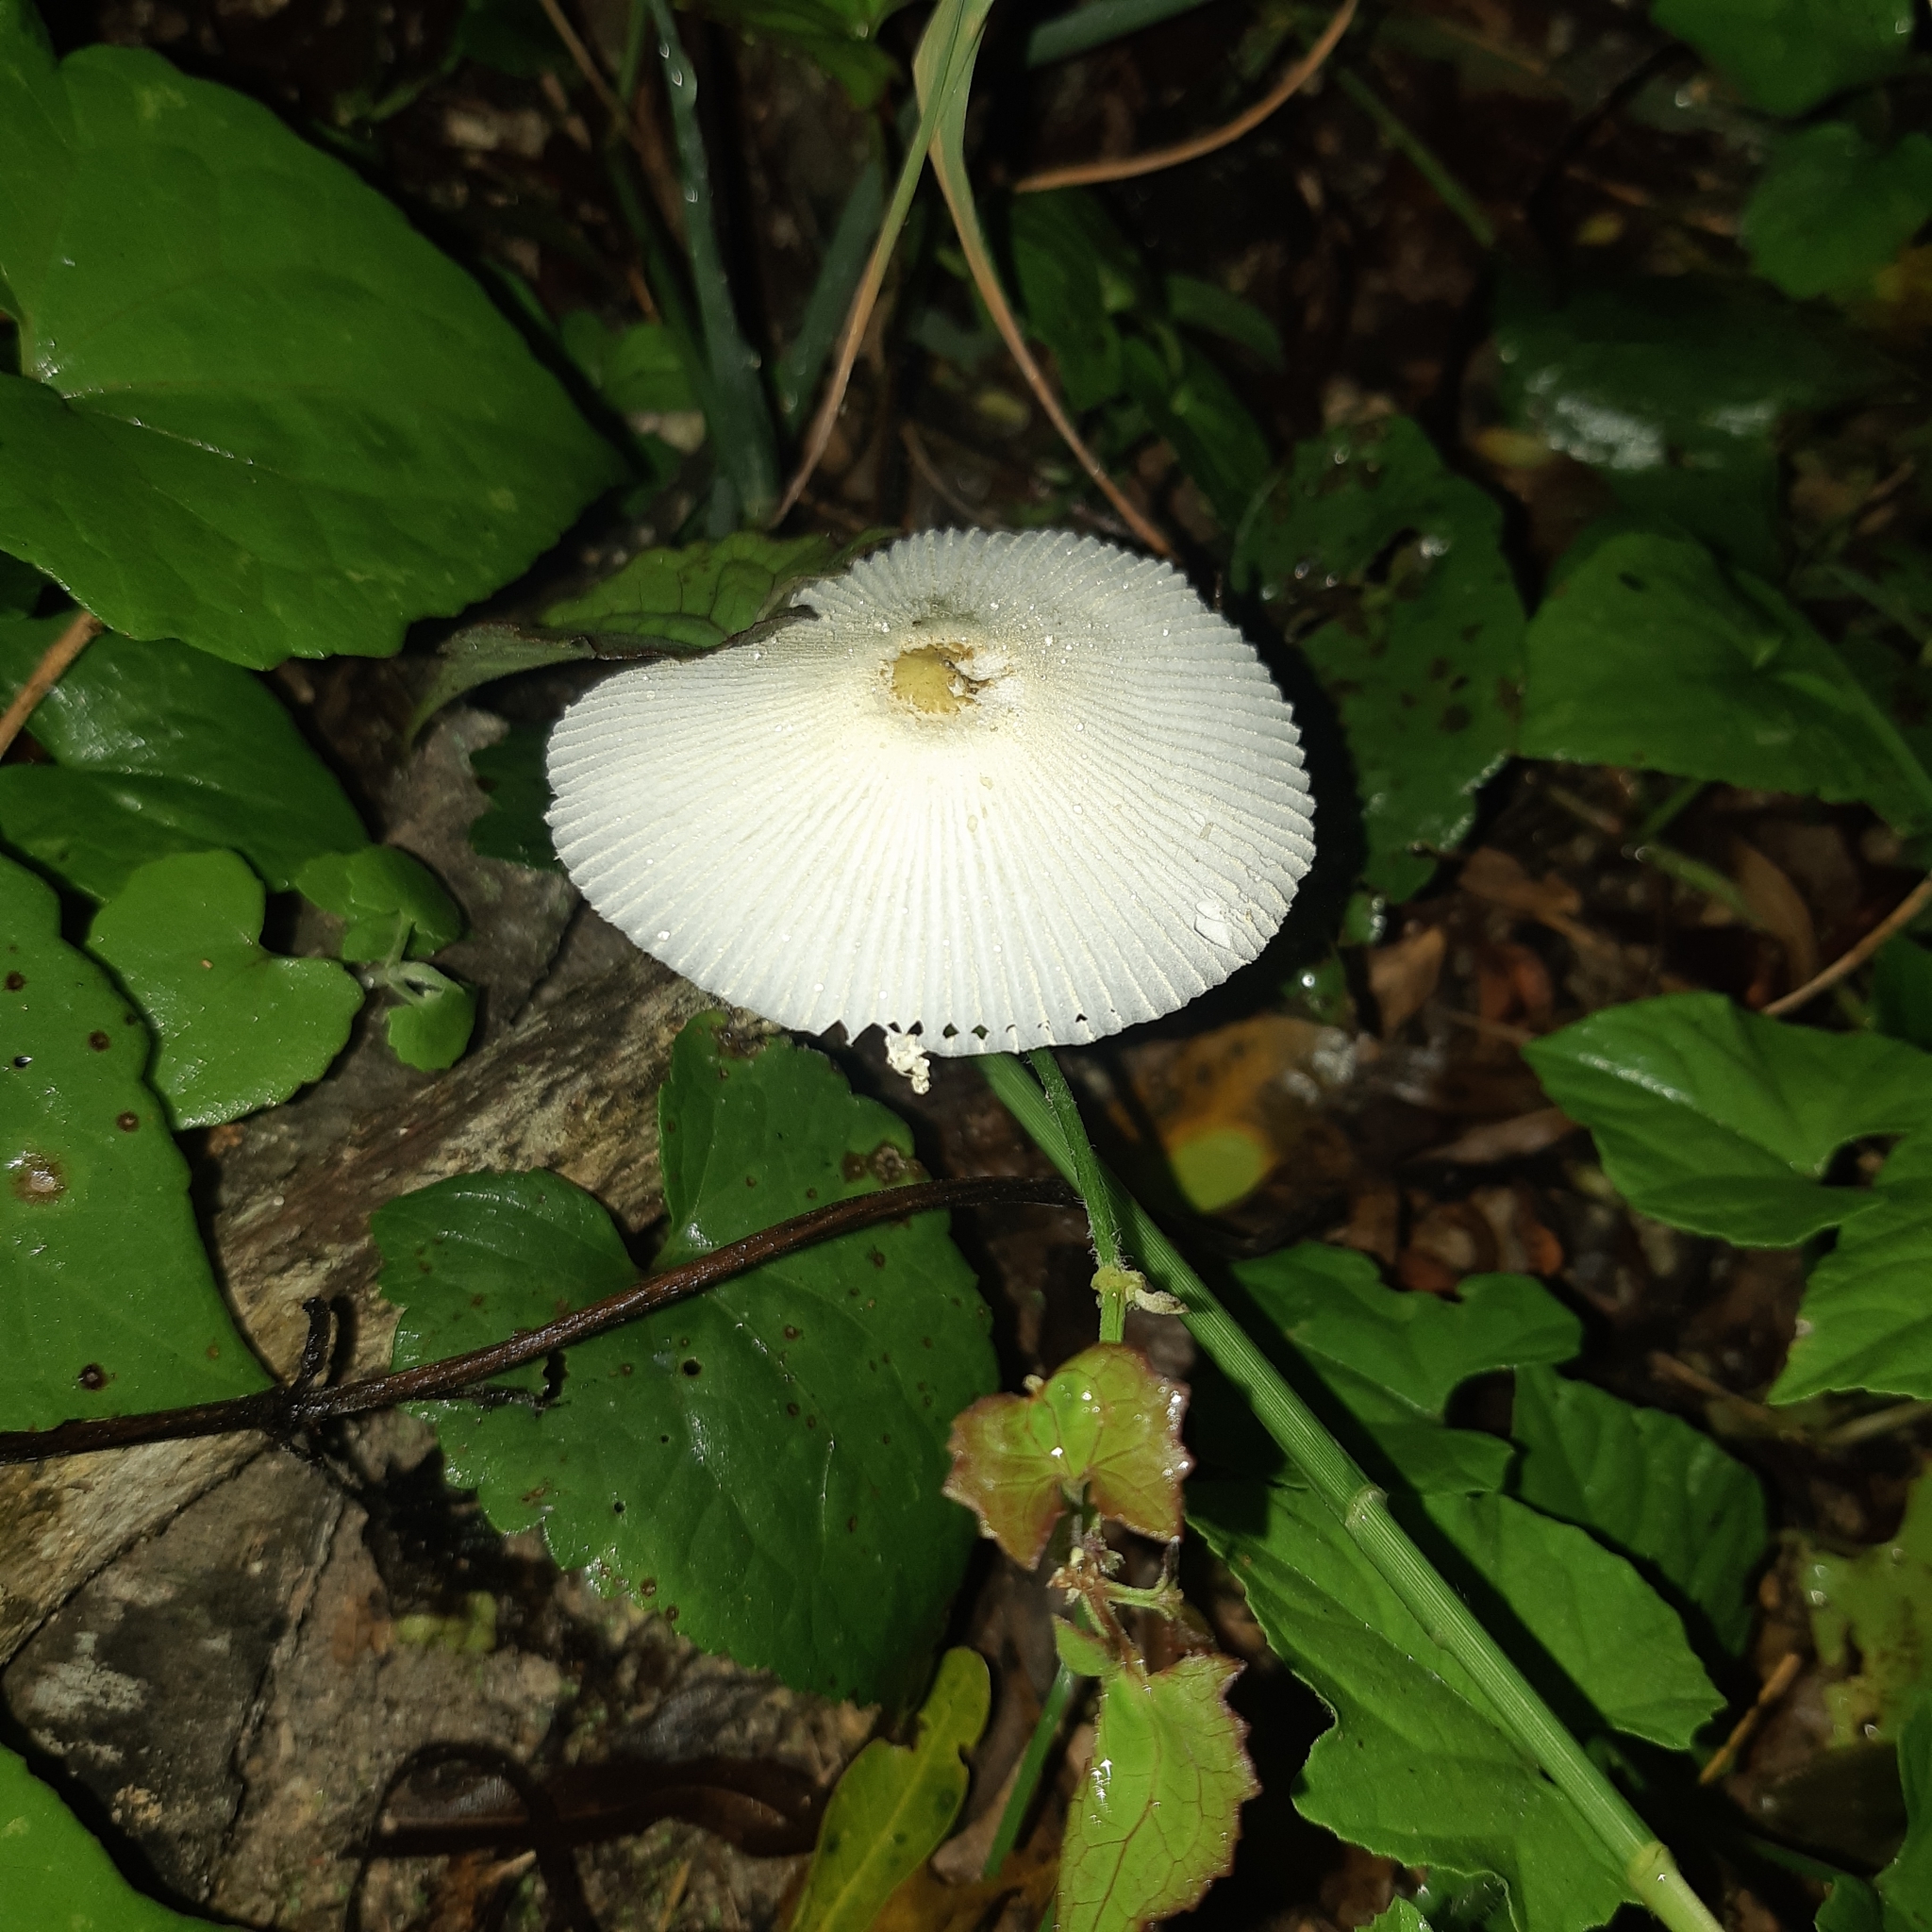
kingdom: Fungi
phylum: Basidiomycota
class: Agaricomycetes
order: Agaricales
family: Agaricaceae
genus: Leucocoprinus
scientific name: Leucocoprinus fragilissimus
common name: Fragile dapperling
